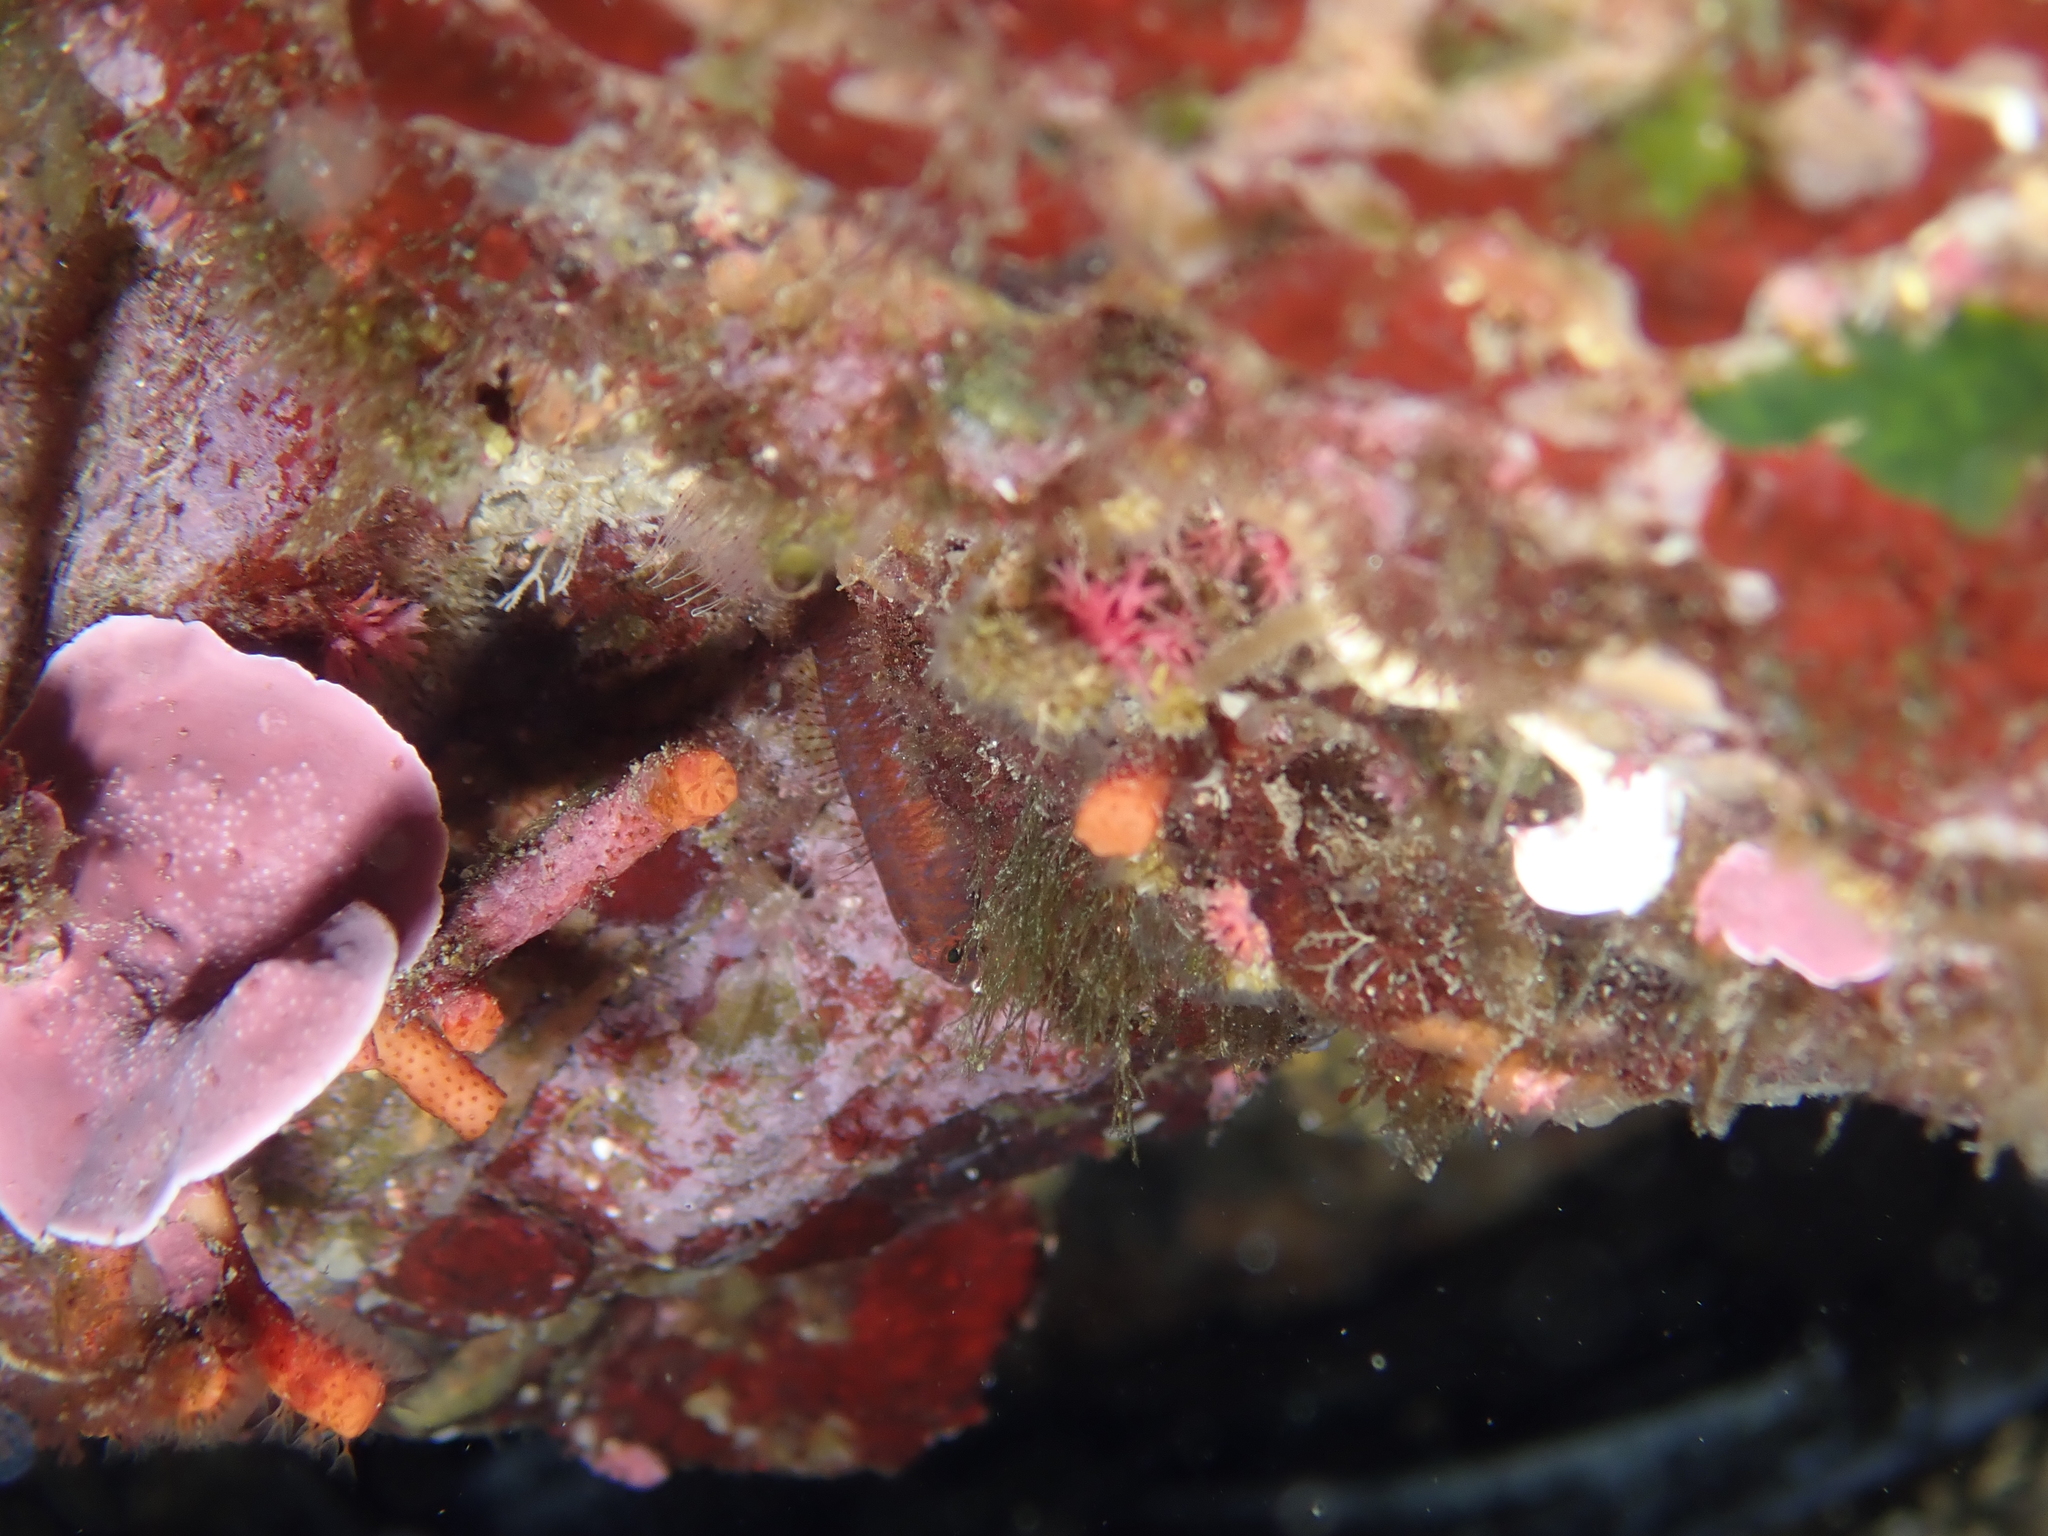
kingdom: Animalia
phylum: Chordata
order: Perciformes
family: Gobiidae
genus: Corcyrogobius
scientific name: Corcyrogobius liechtensteini
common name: Liechtenstein's goby
